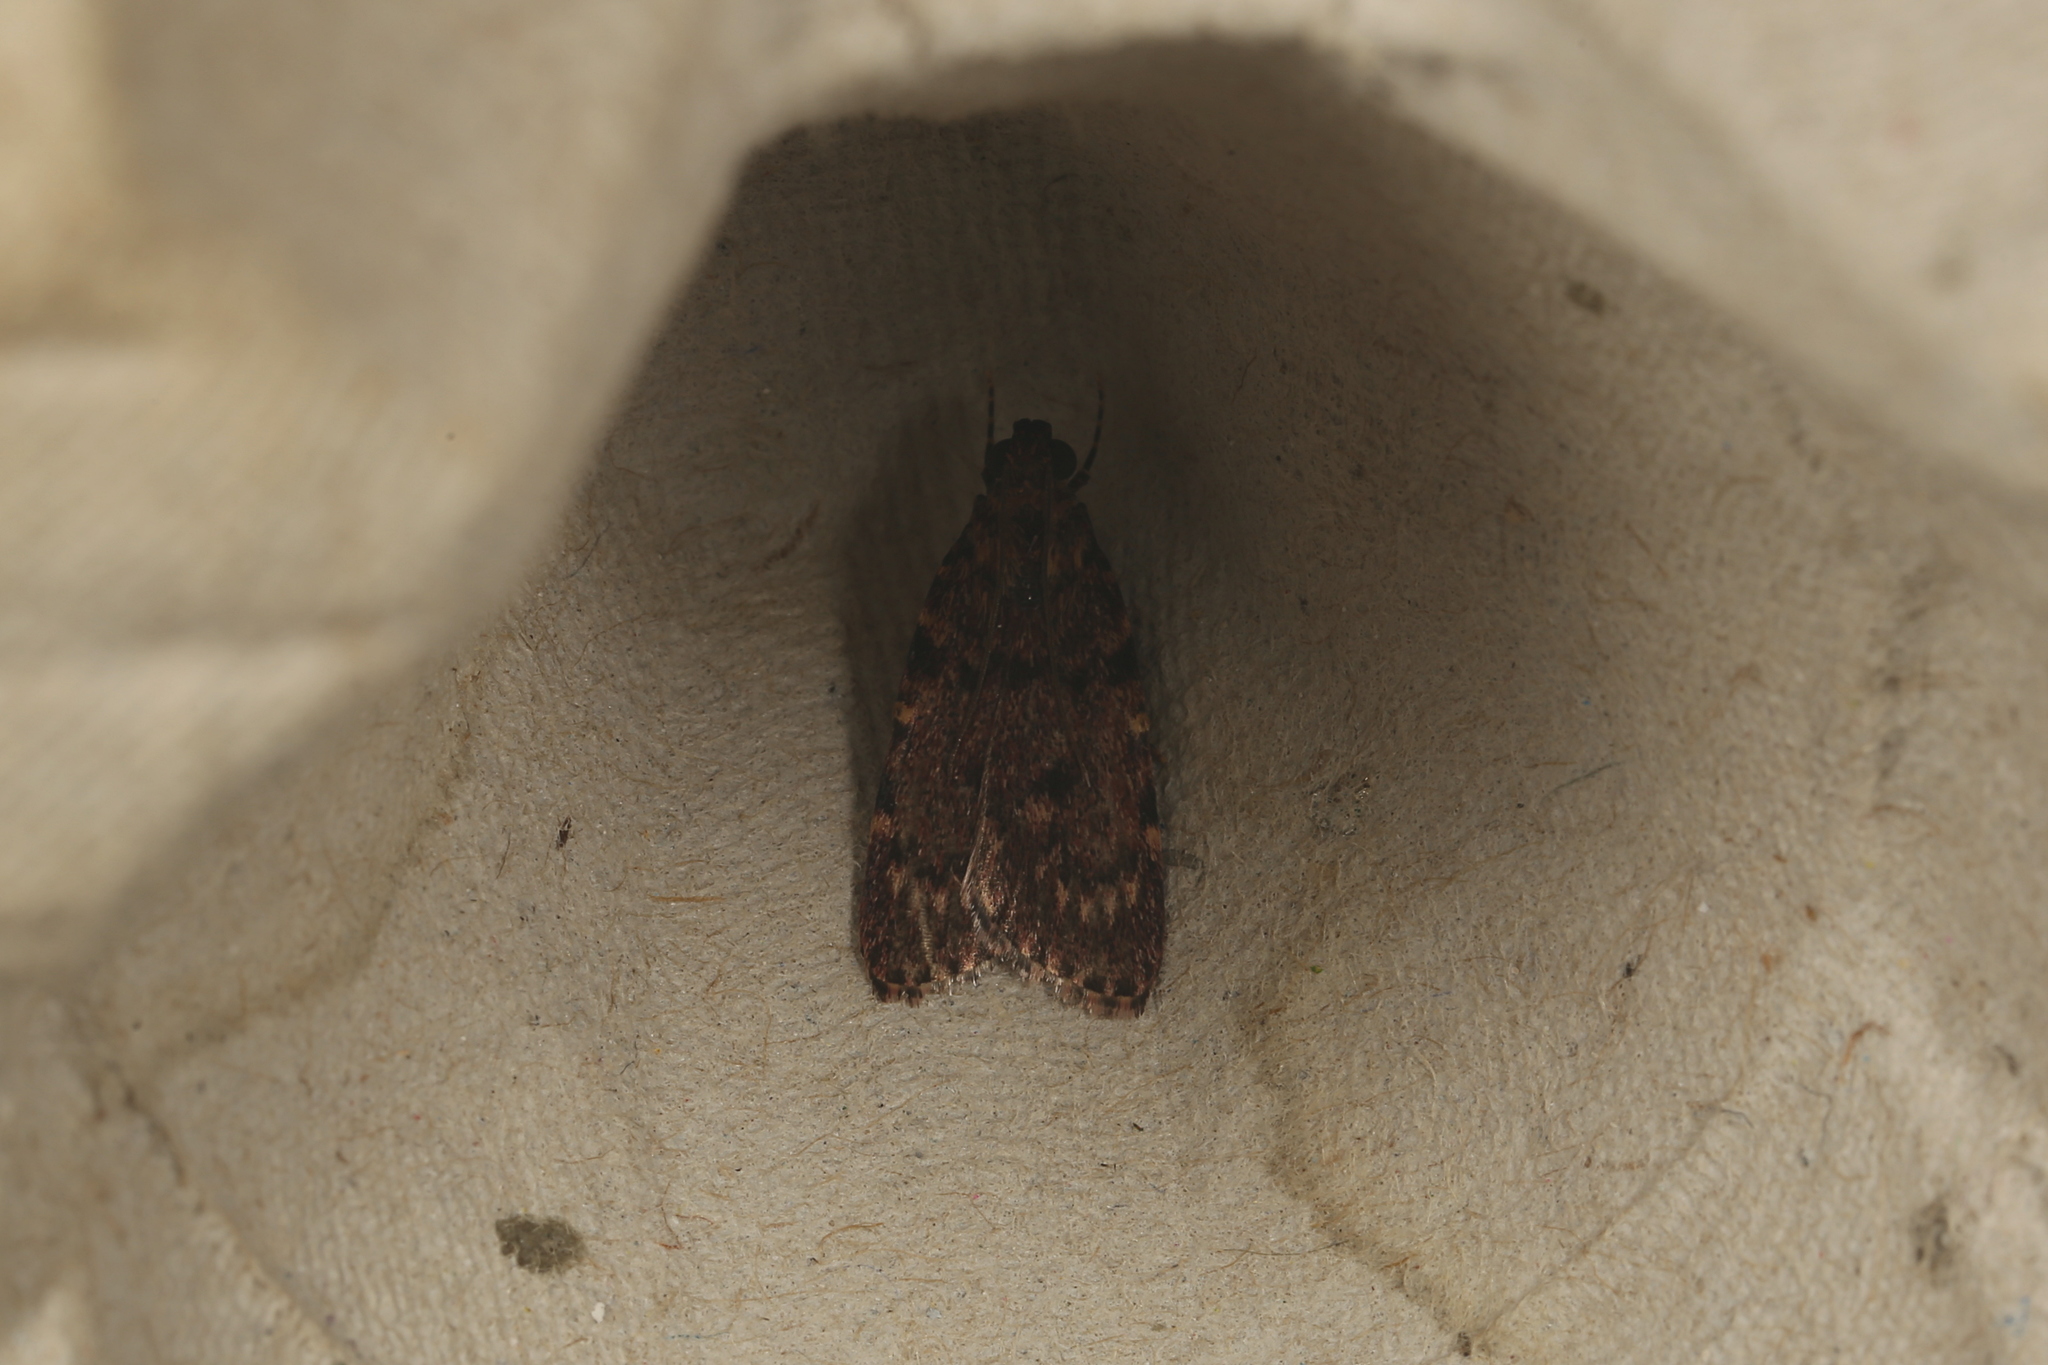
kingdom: Animalia
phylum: Arthropoda
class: Insecta
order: Lepidoptera
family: Pyralidae
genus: Mimaglossa
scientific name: Mimaglossa nauplialis
